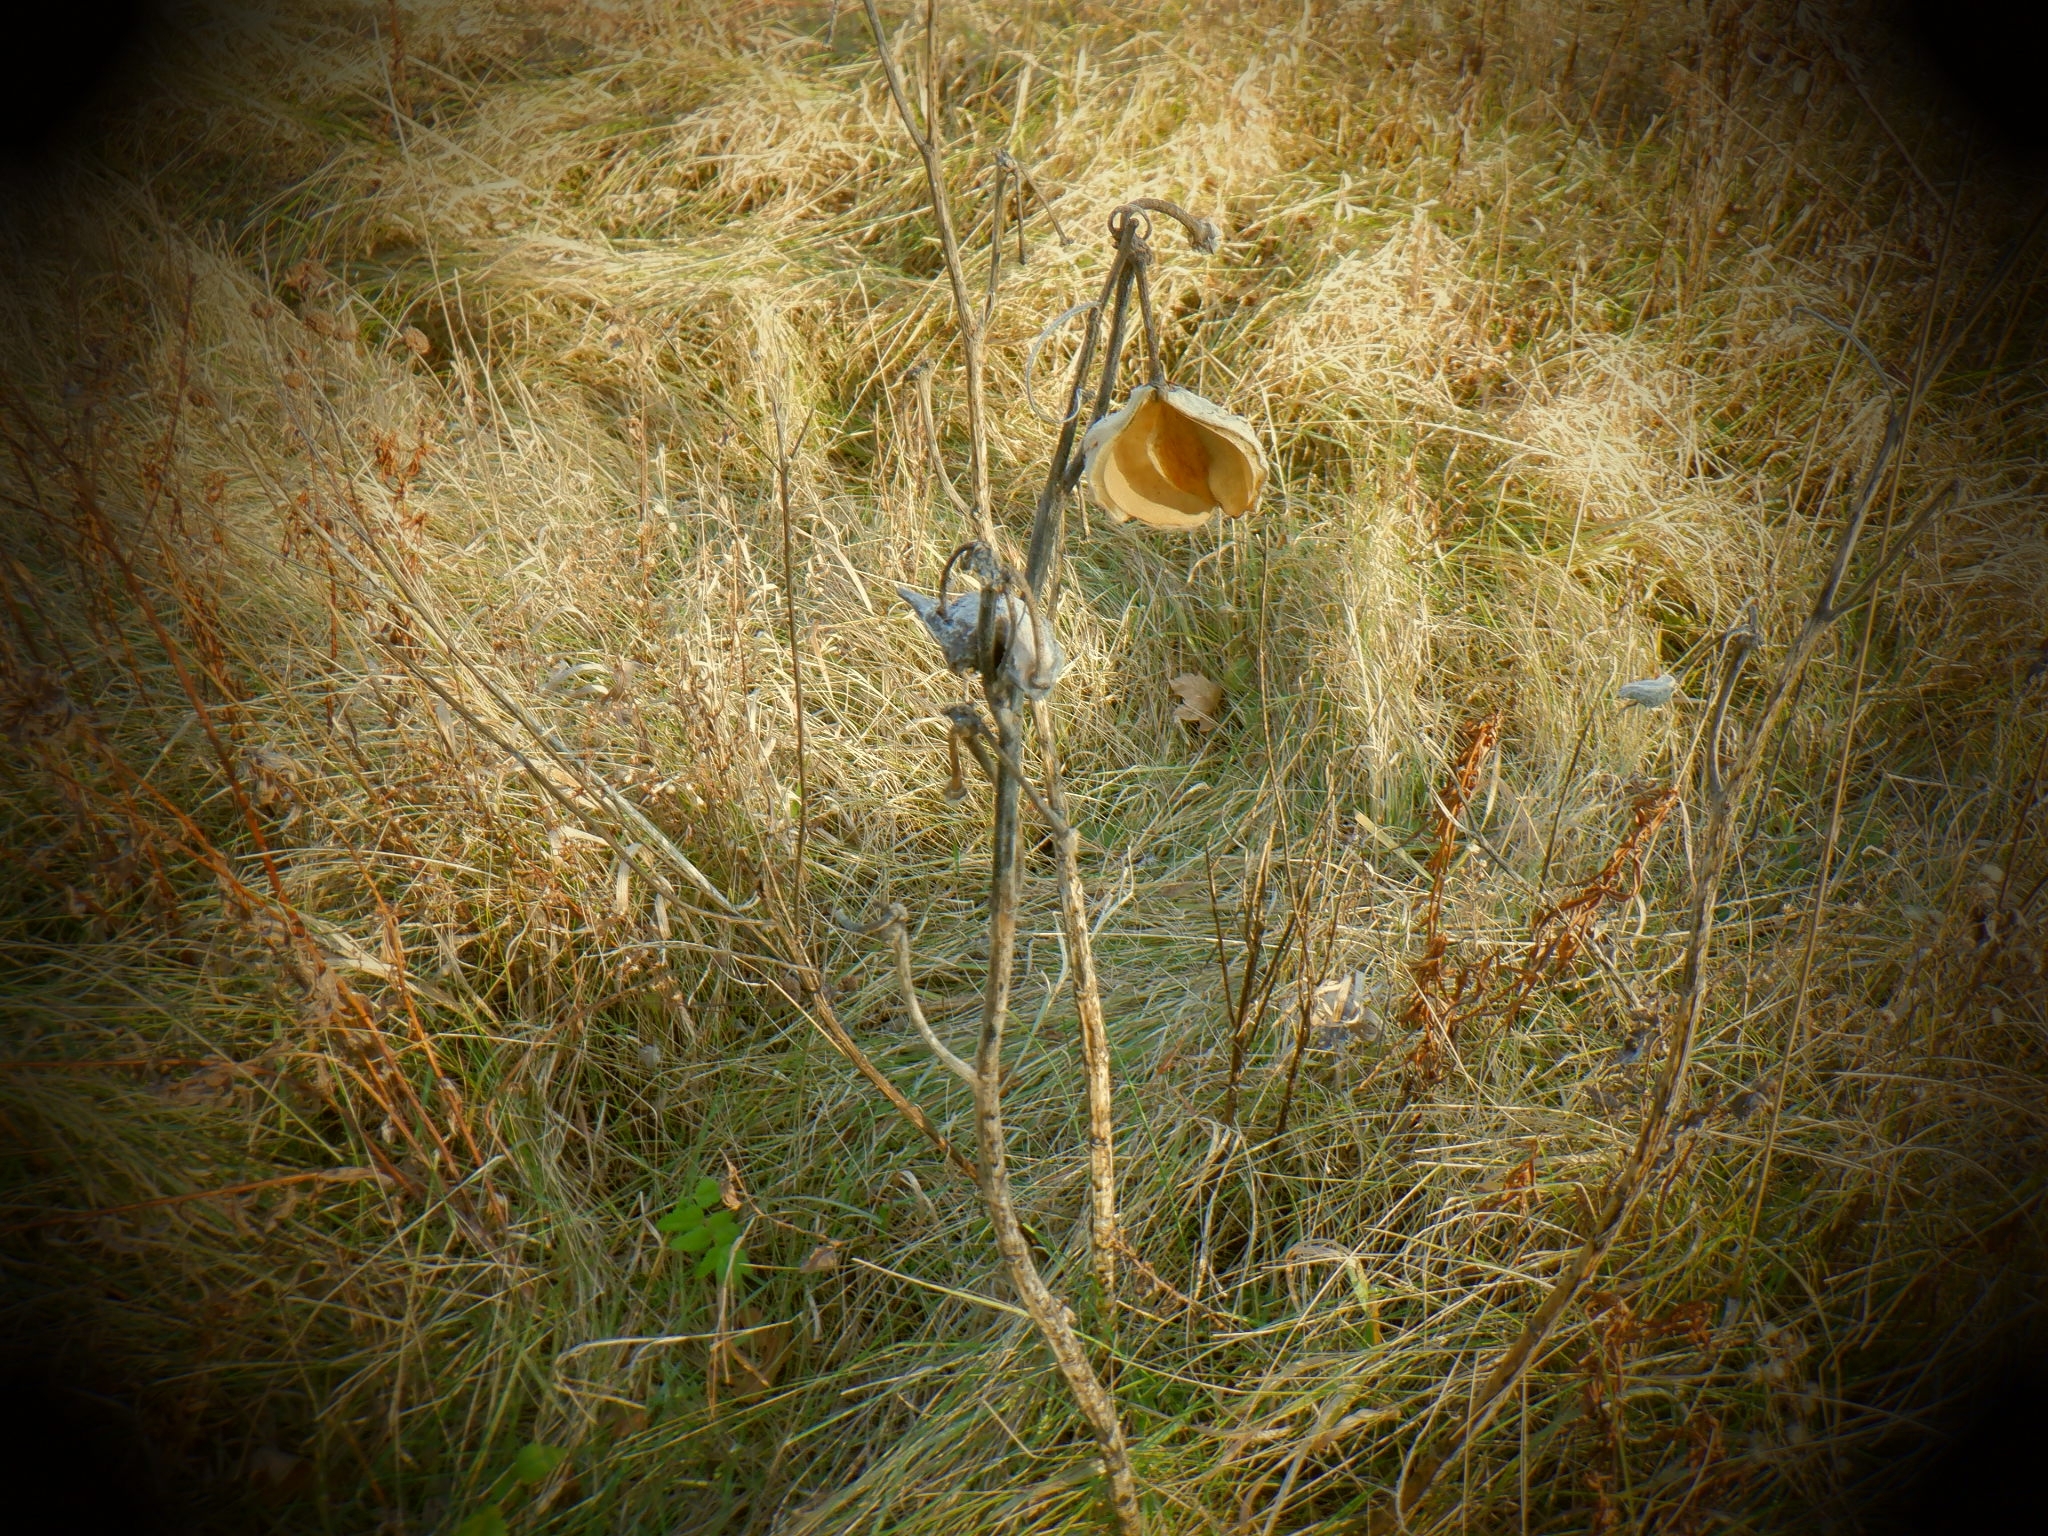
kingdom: Plantae
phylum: Tracheophyta
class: Magnoliopsida
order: Gentianales
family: Apocynaceae
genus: Asclepias
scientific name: Asclepias syriaca
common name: Common milkweed
